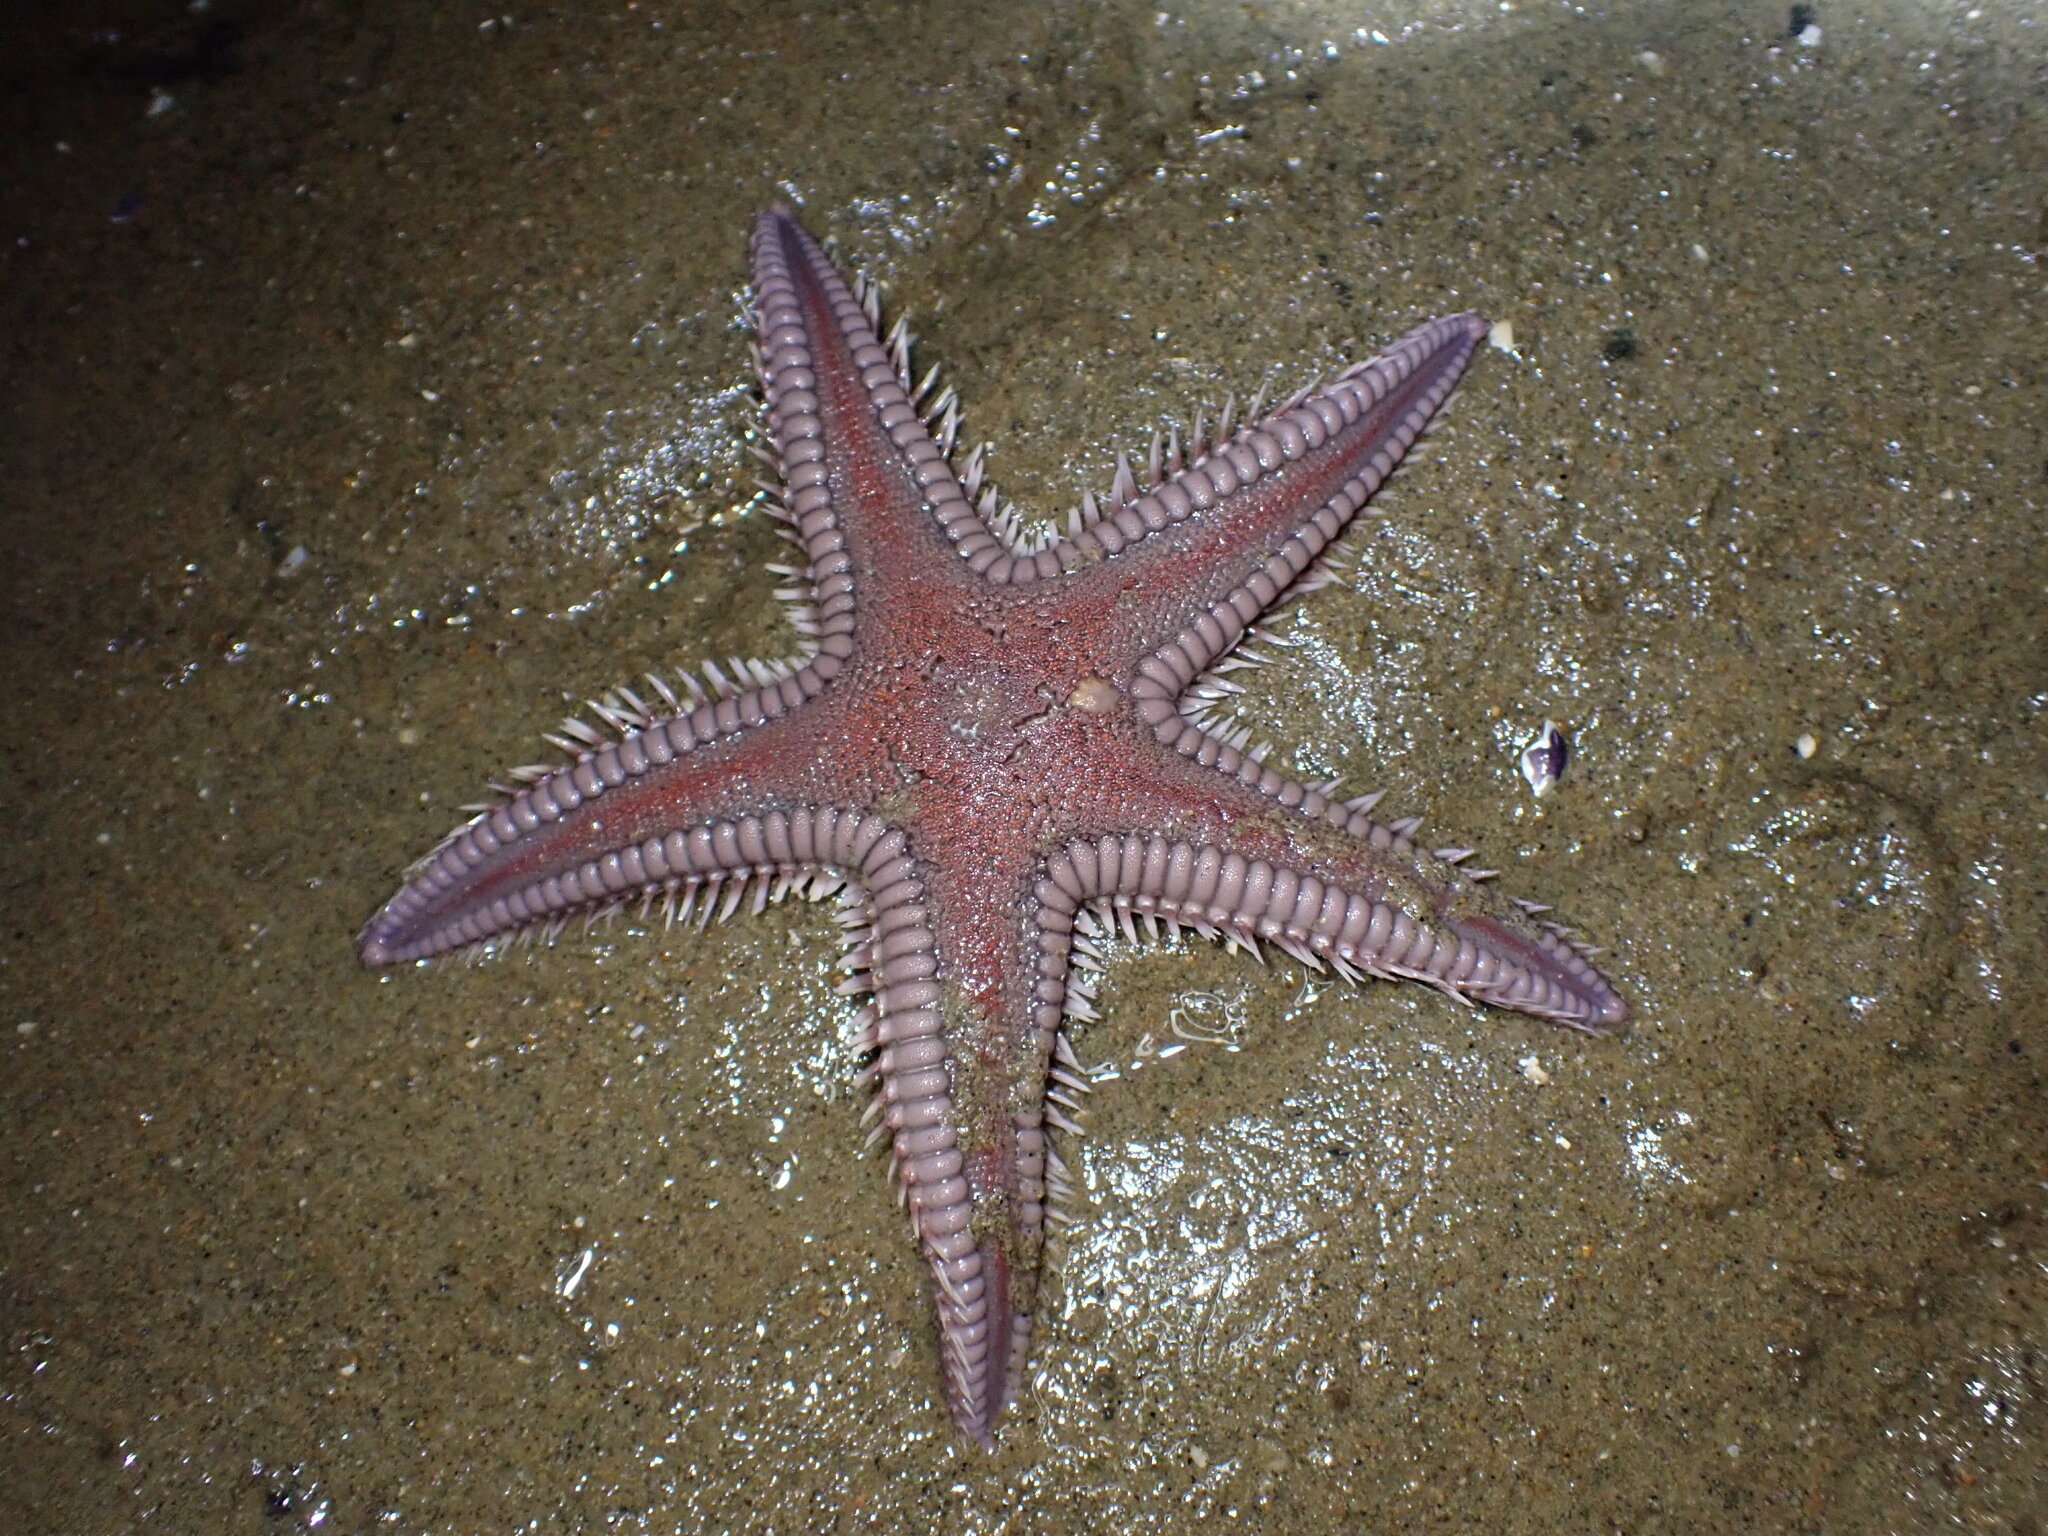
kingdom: Animalia
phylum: Echinodermata
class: Asteroidea
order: Paxillosida
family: Astropectinidae
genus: Astropecten
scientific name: Astropecten verrilli de
